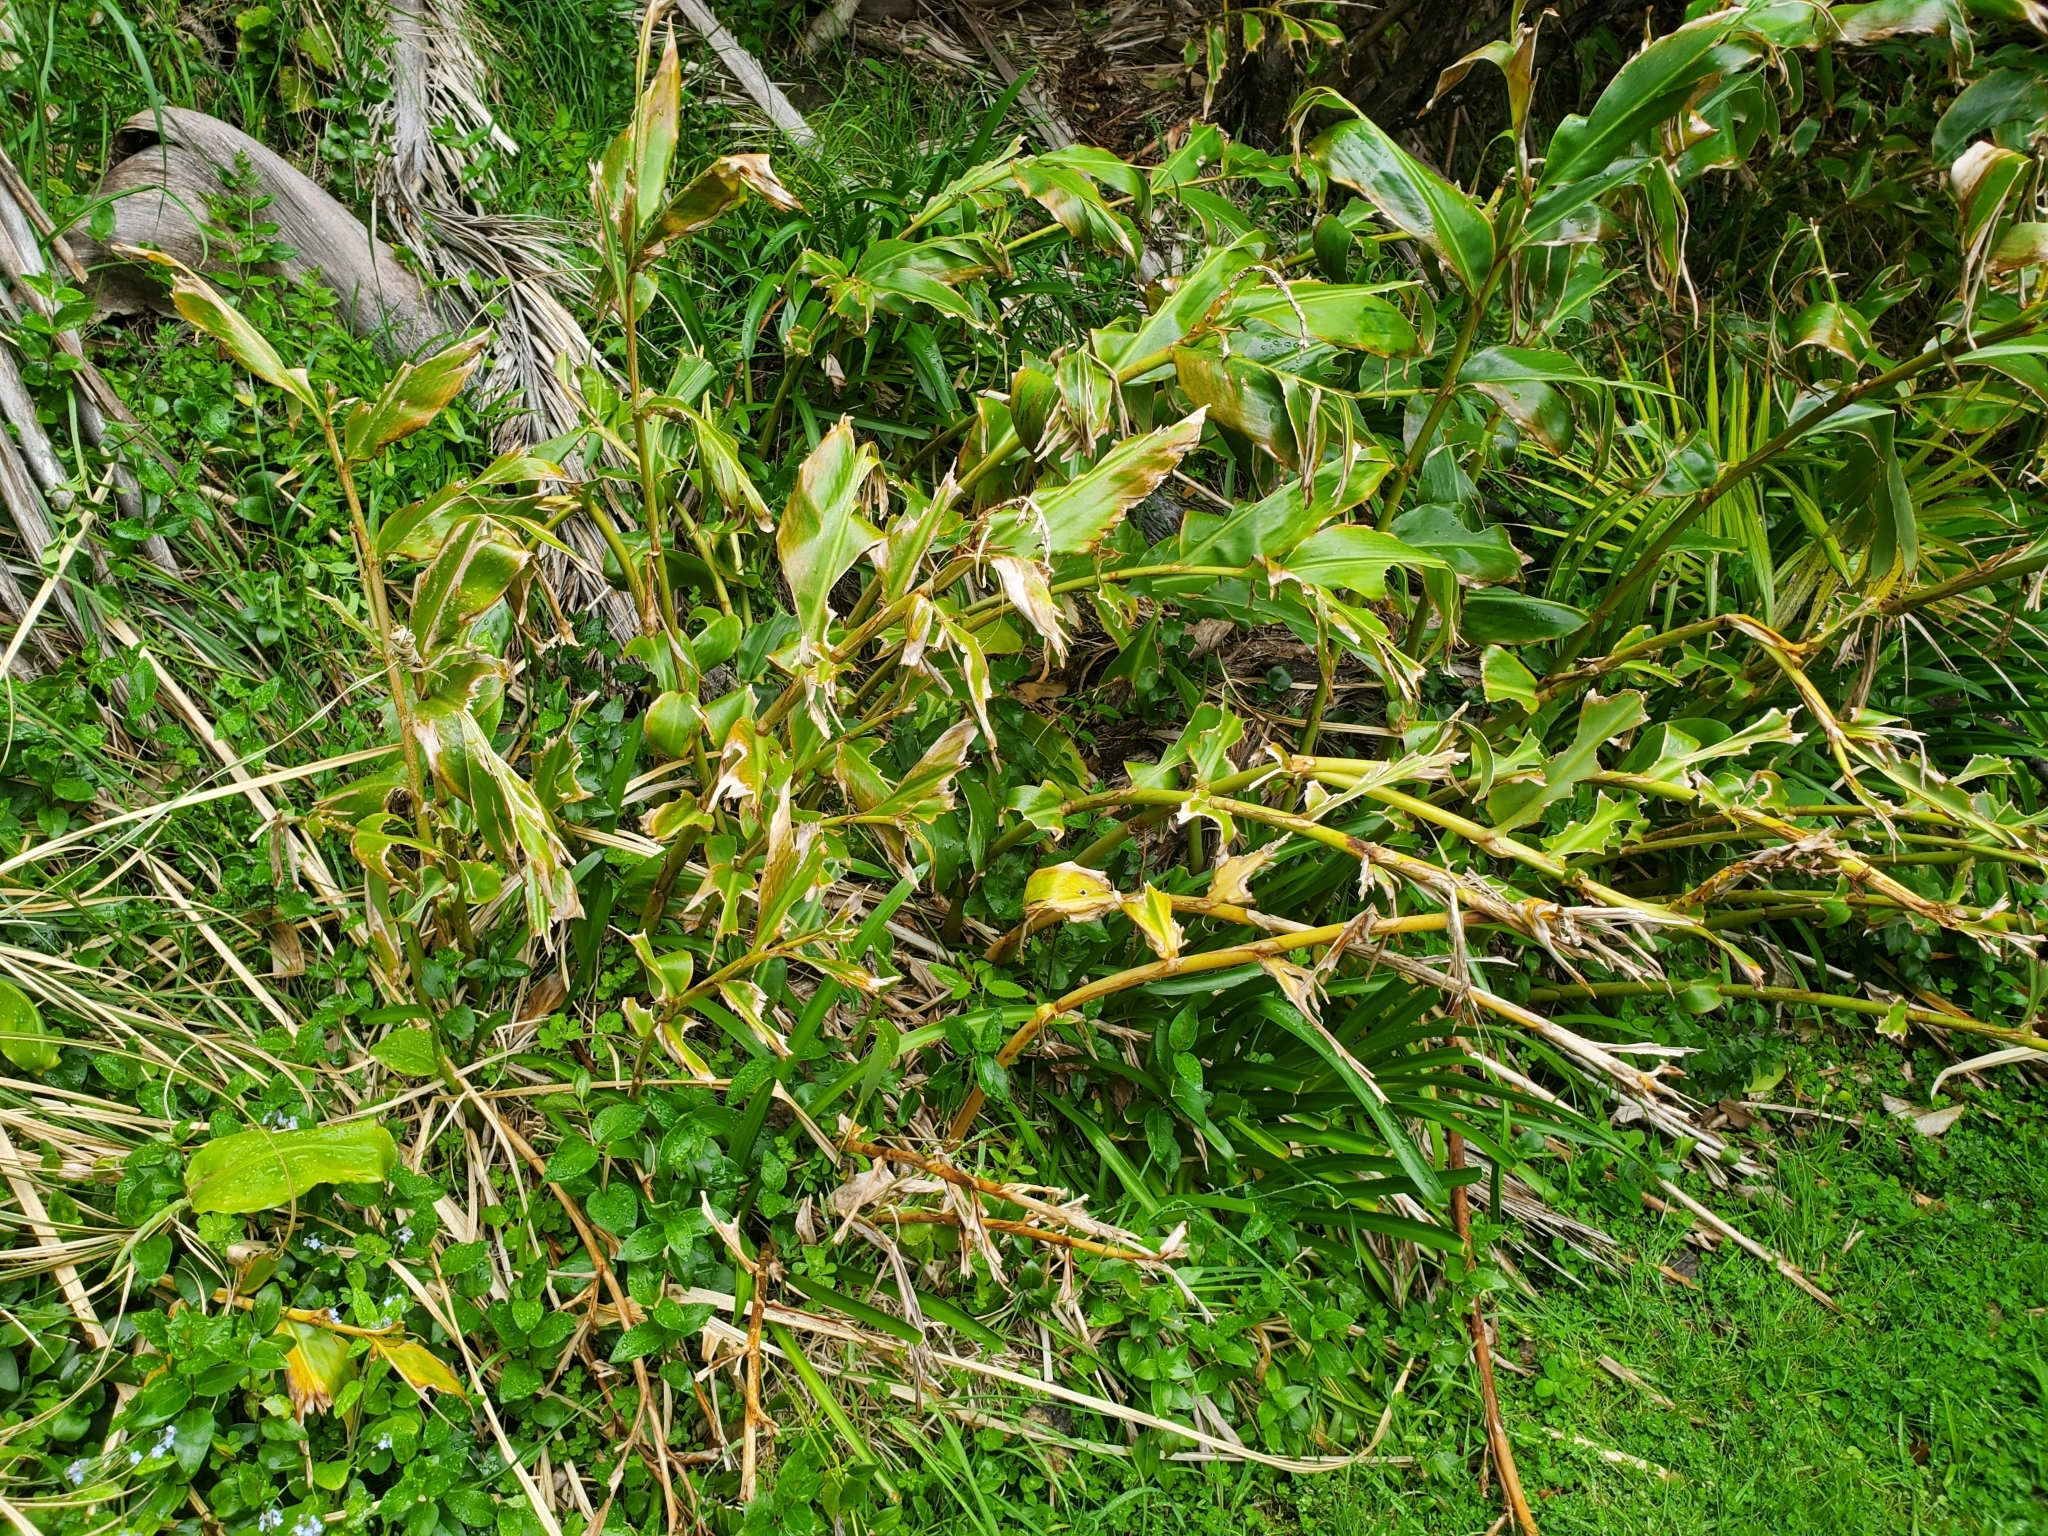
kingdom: Plantae
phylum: Tracheophyta
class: Liliopsida
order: Zingiberales
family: Zingiberaceae
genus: Hedychium
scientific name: Hedychium gardnerianum
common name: Himalayan ginger
